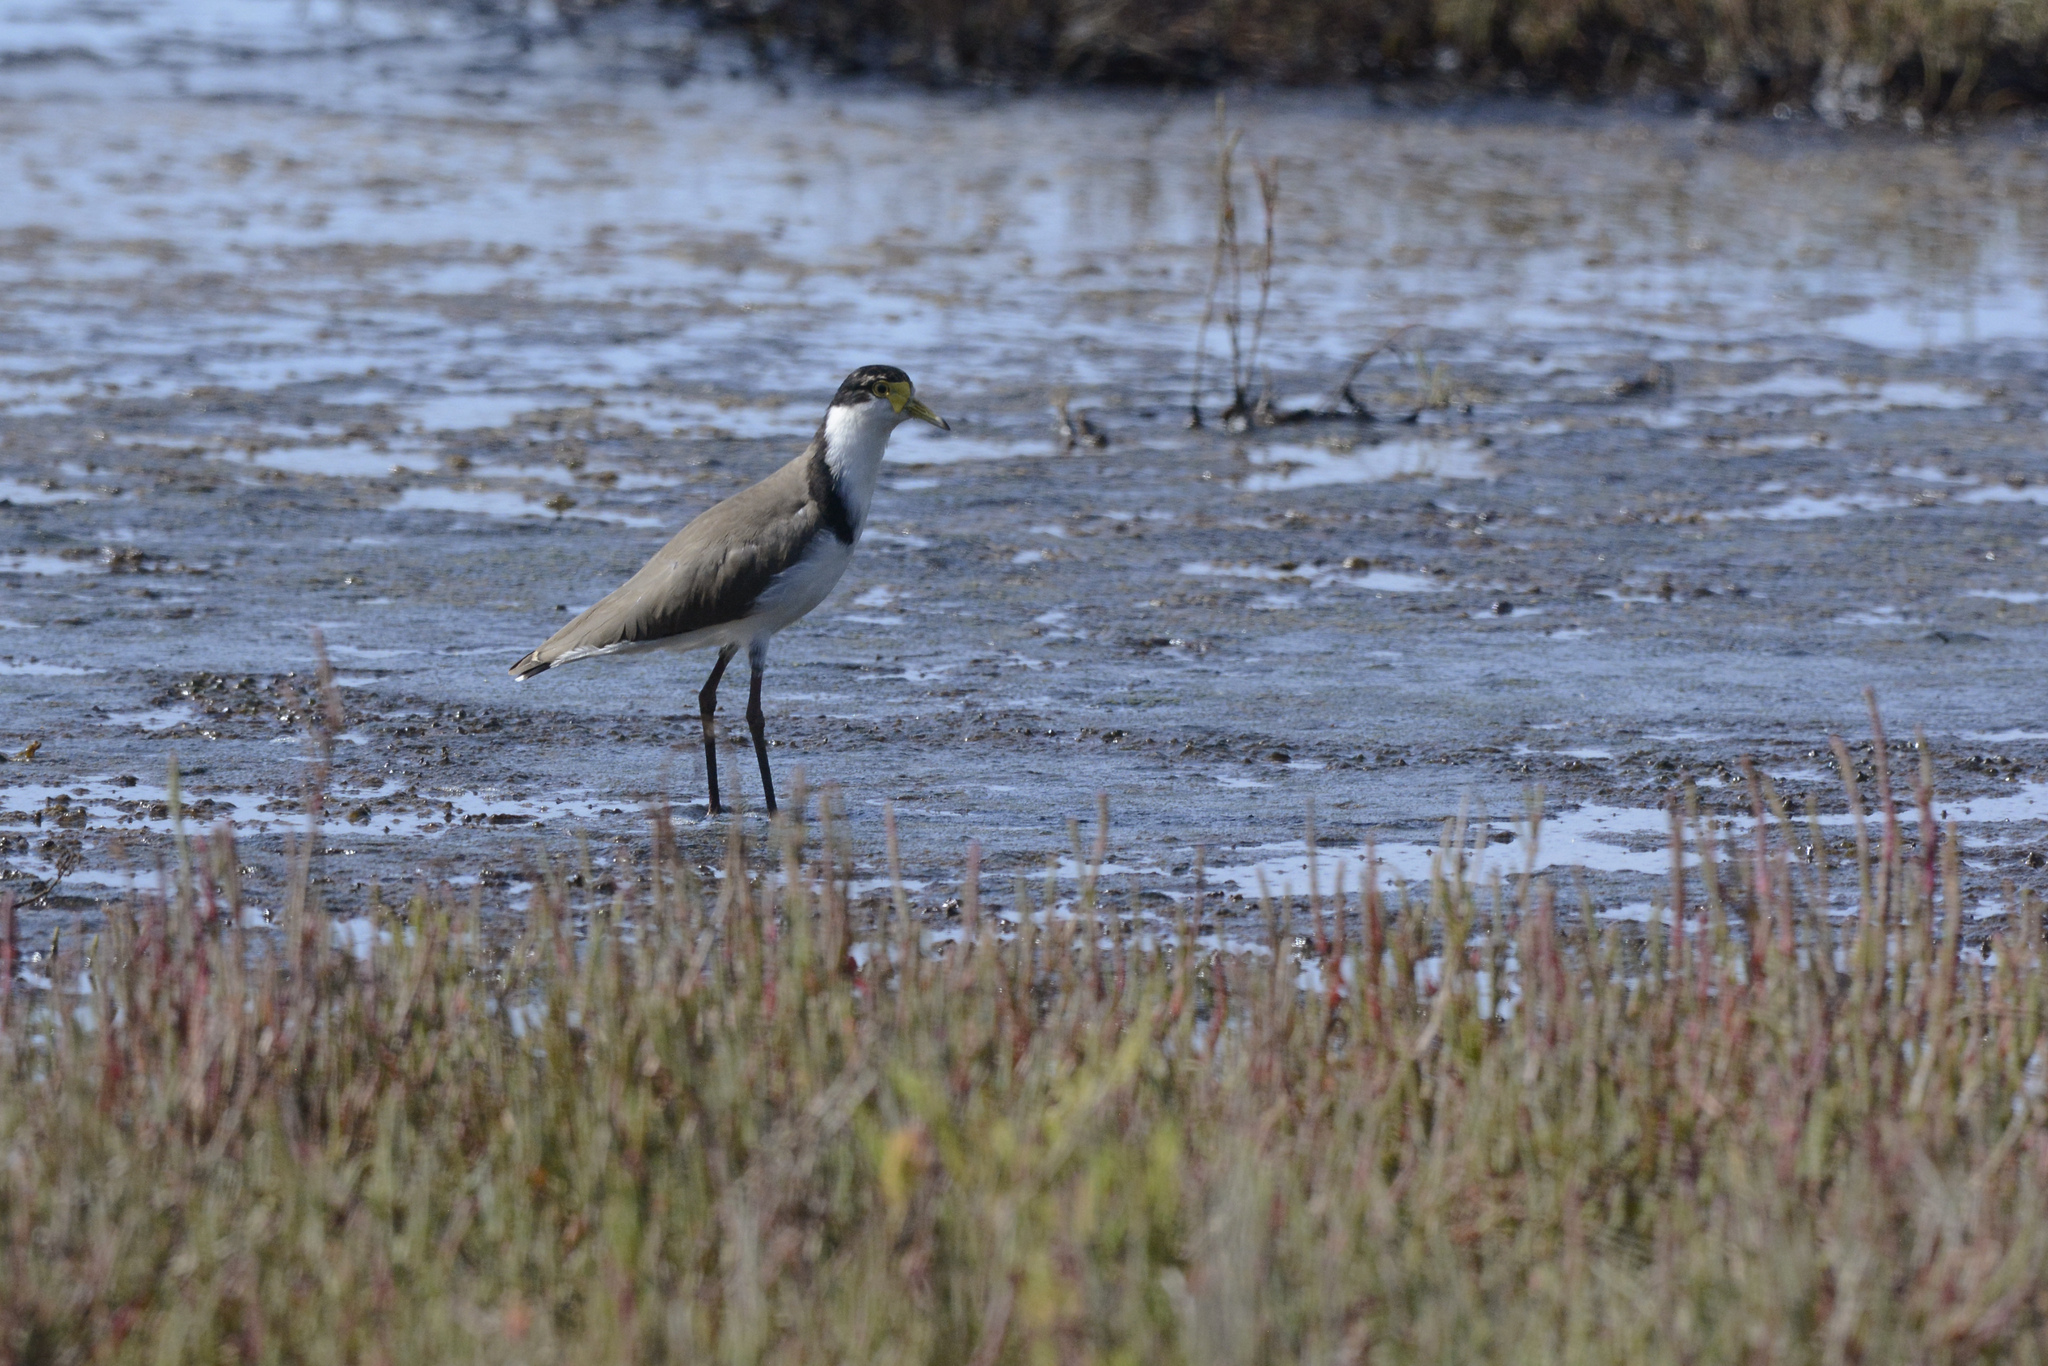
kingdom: Animalia
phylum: Chordata
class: Aves
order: Charadriiformes
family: Charadriidae
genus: Vanellus
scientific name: Vanellus miles
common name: Masked lapwing
